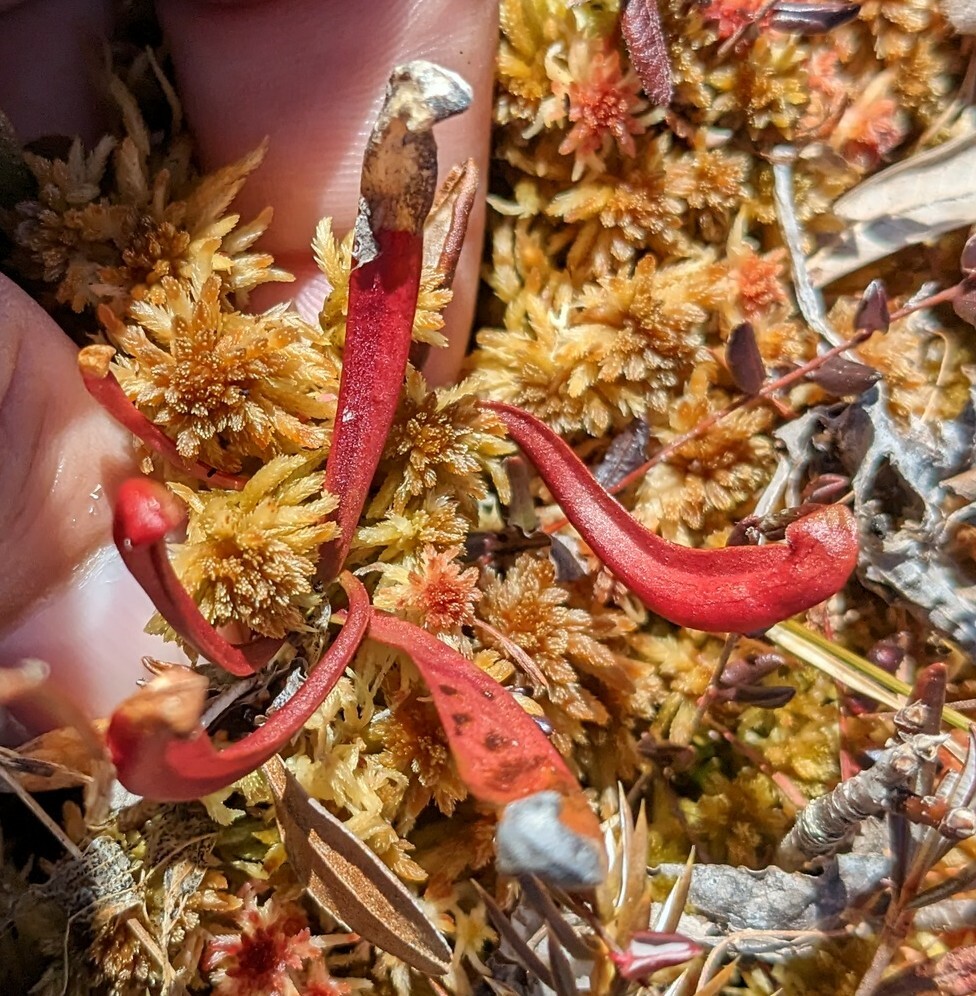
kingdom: Plantae
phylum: Tracheophyta
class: Magnoliopsida
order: Ericales
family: Sarraceniaceae
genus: Sarracenia
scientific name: Sarracenia purpurea
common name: Pitcherplant
